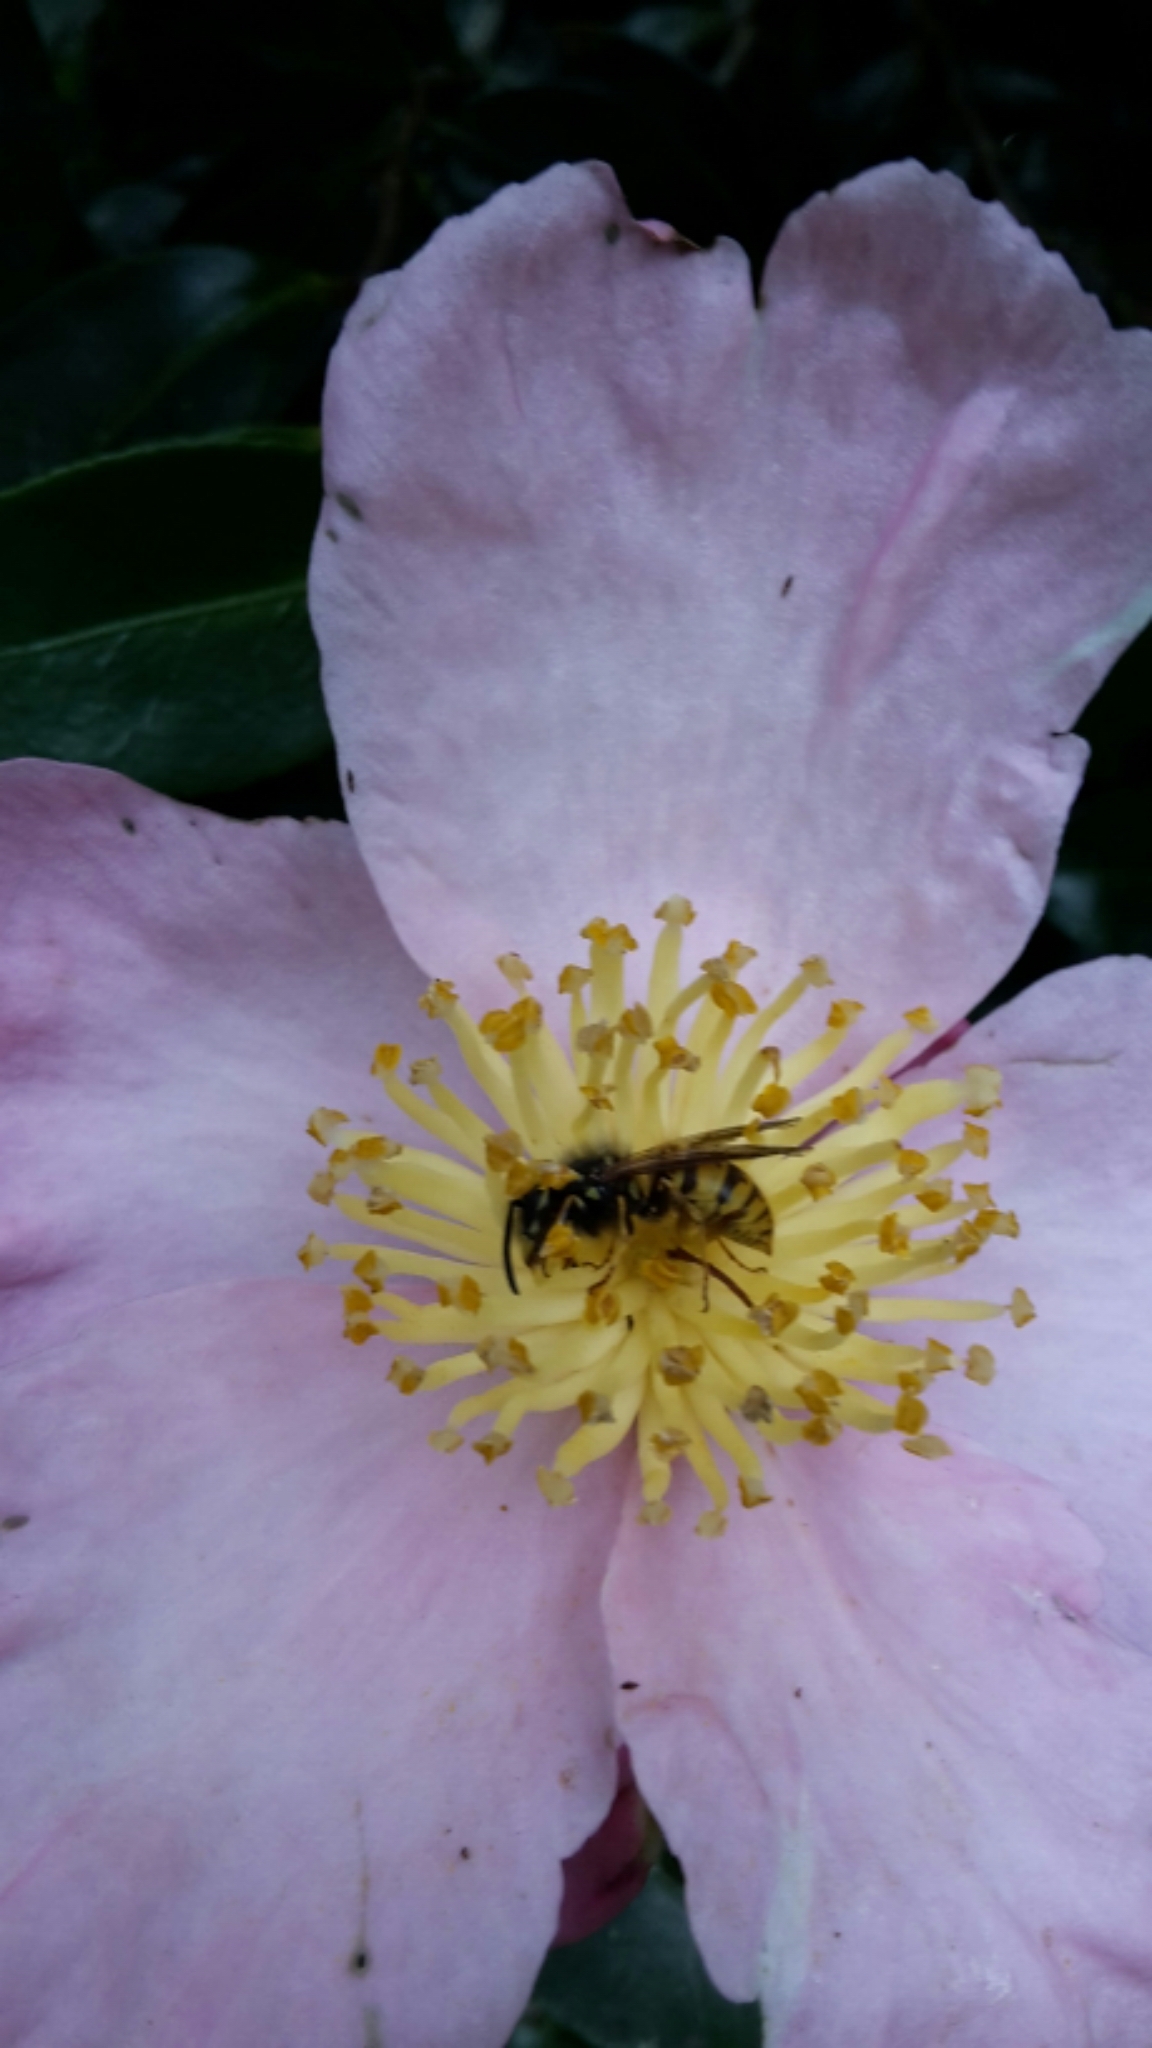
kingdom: Animalia
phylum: Arthropoda
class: Insecta
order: Hymenoptera
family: Vespidae
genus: Vespula
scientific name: Vespula vulgaris
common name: Common wasp
